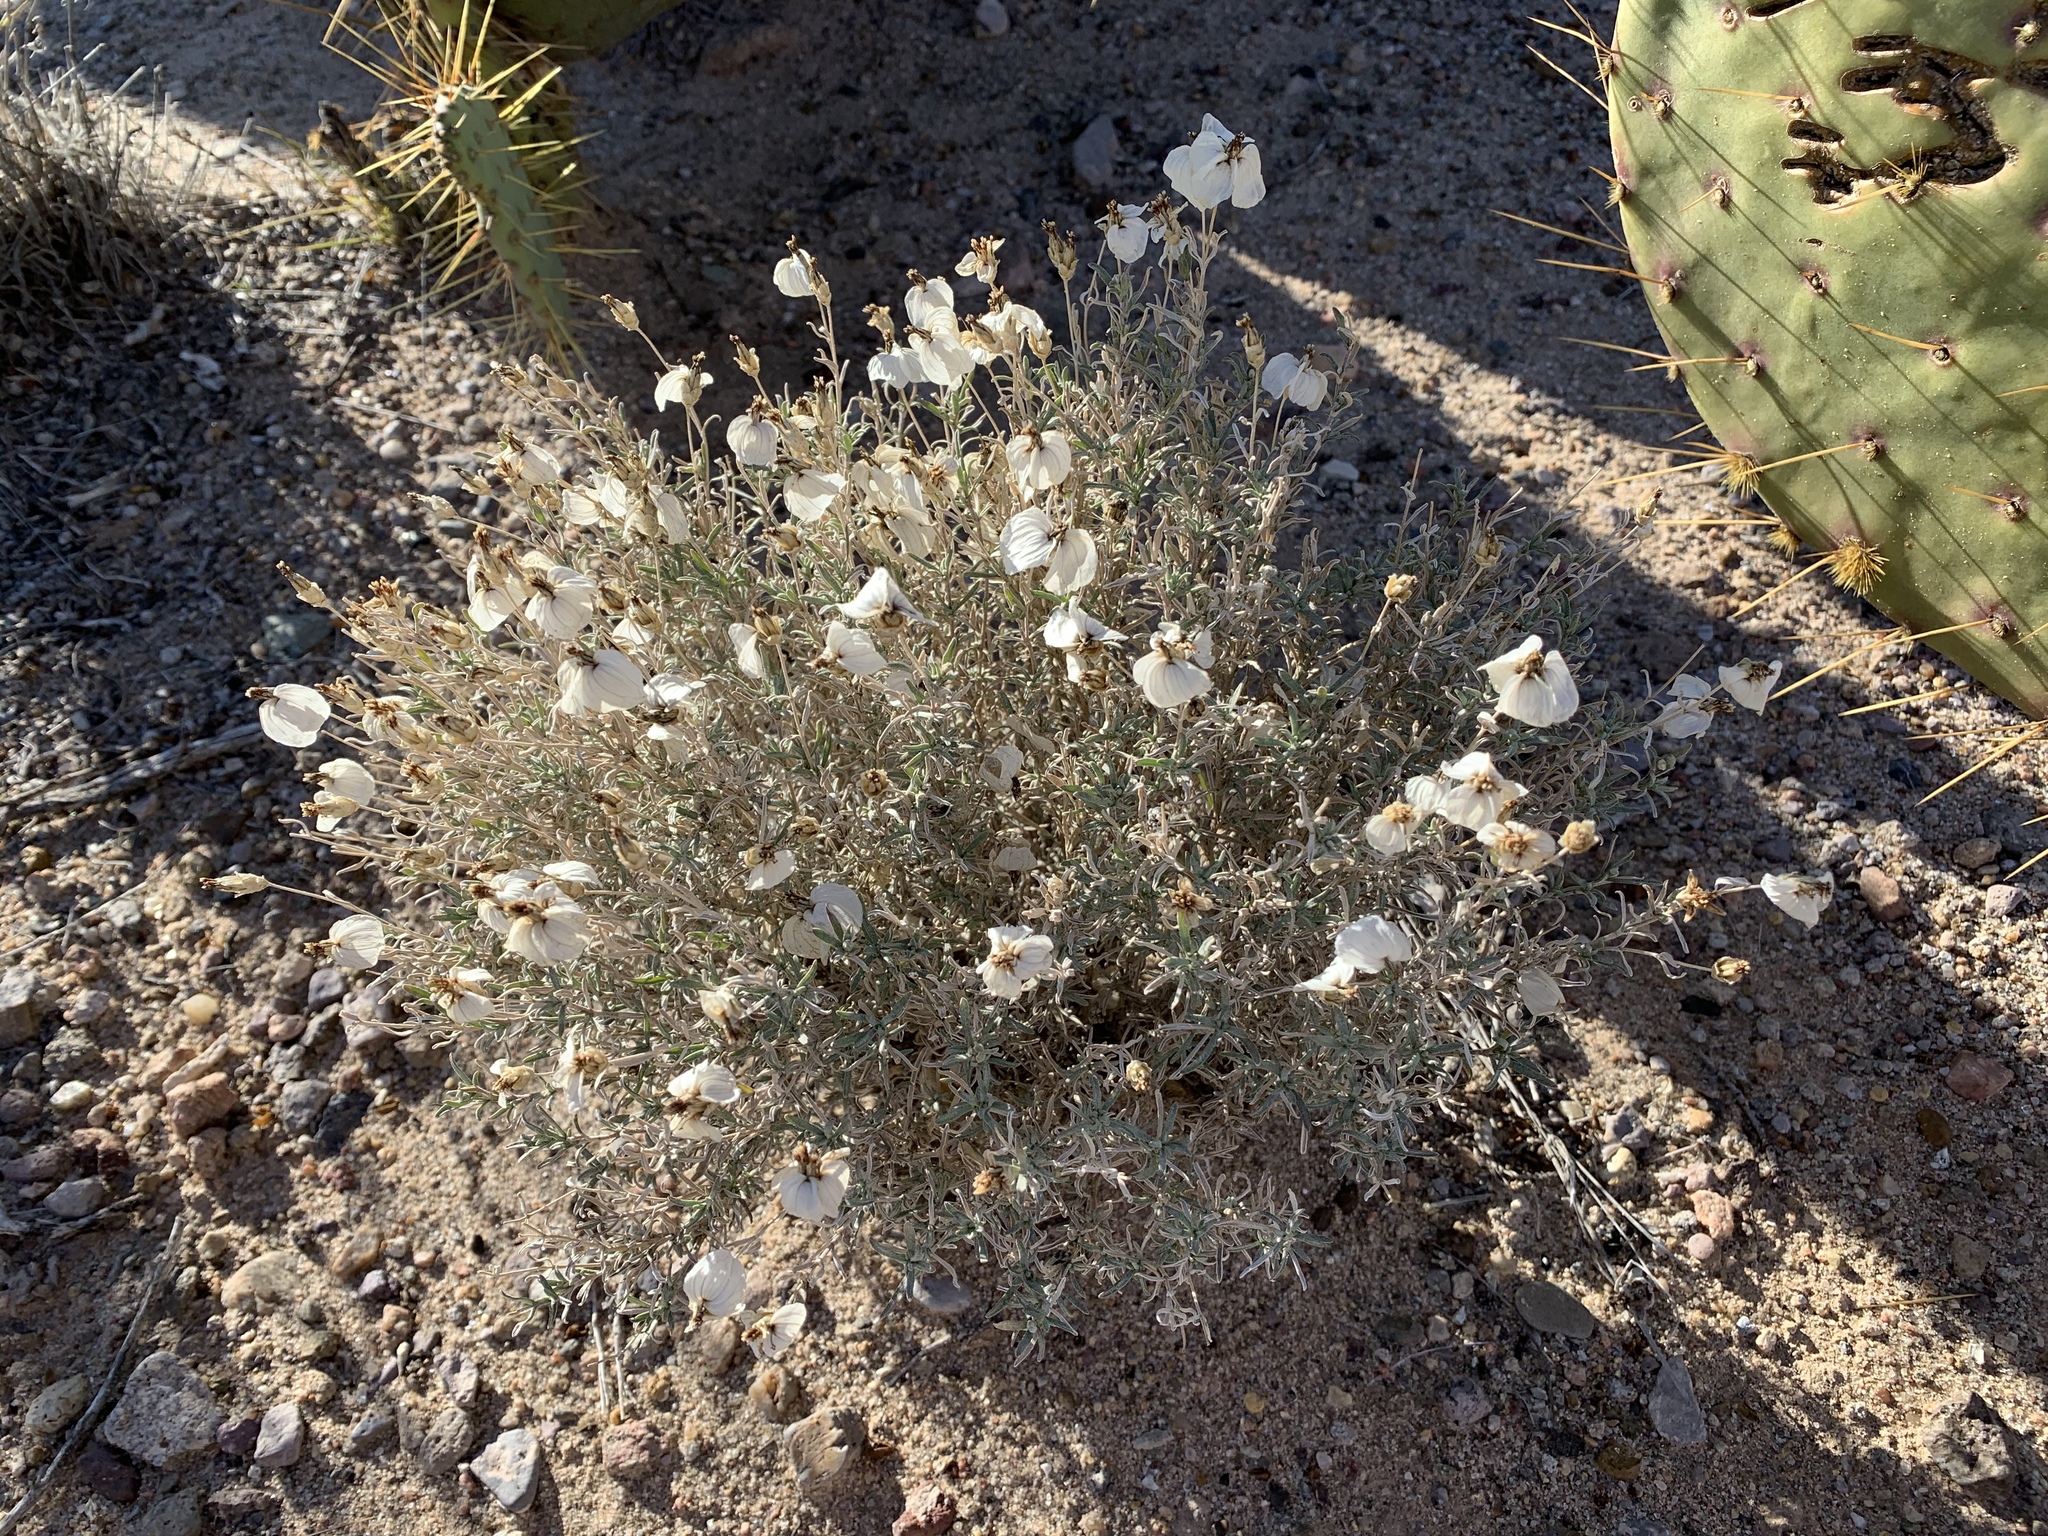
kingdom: Plantae
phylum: Tracheophyta
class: Magnoliopsida
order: Asterales
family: Asteraceae
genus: Zinnia
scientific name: Zinnia acerosa
